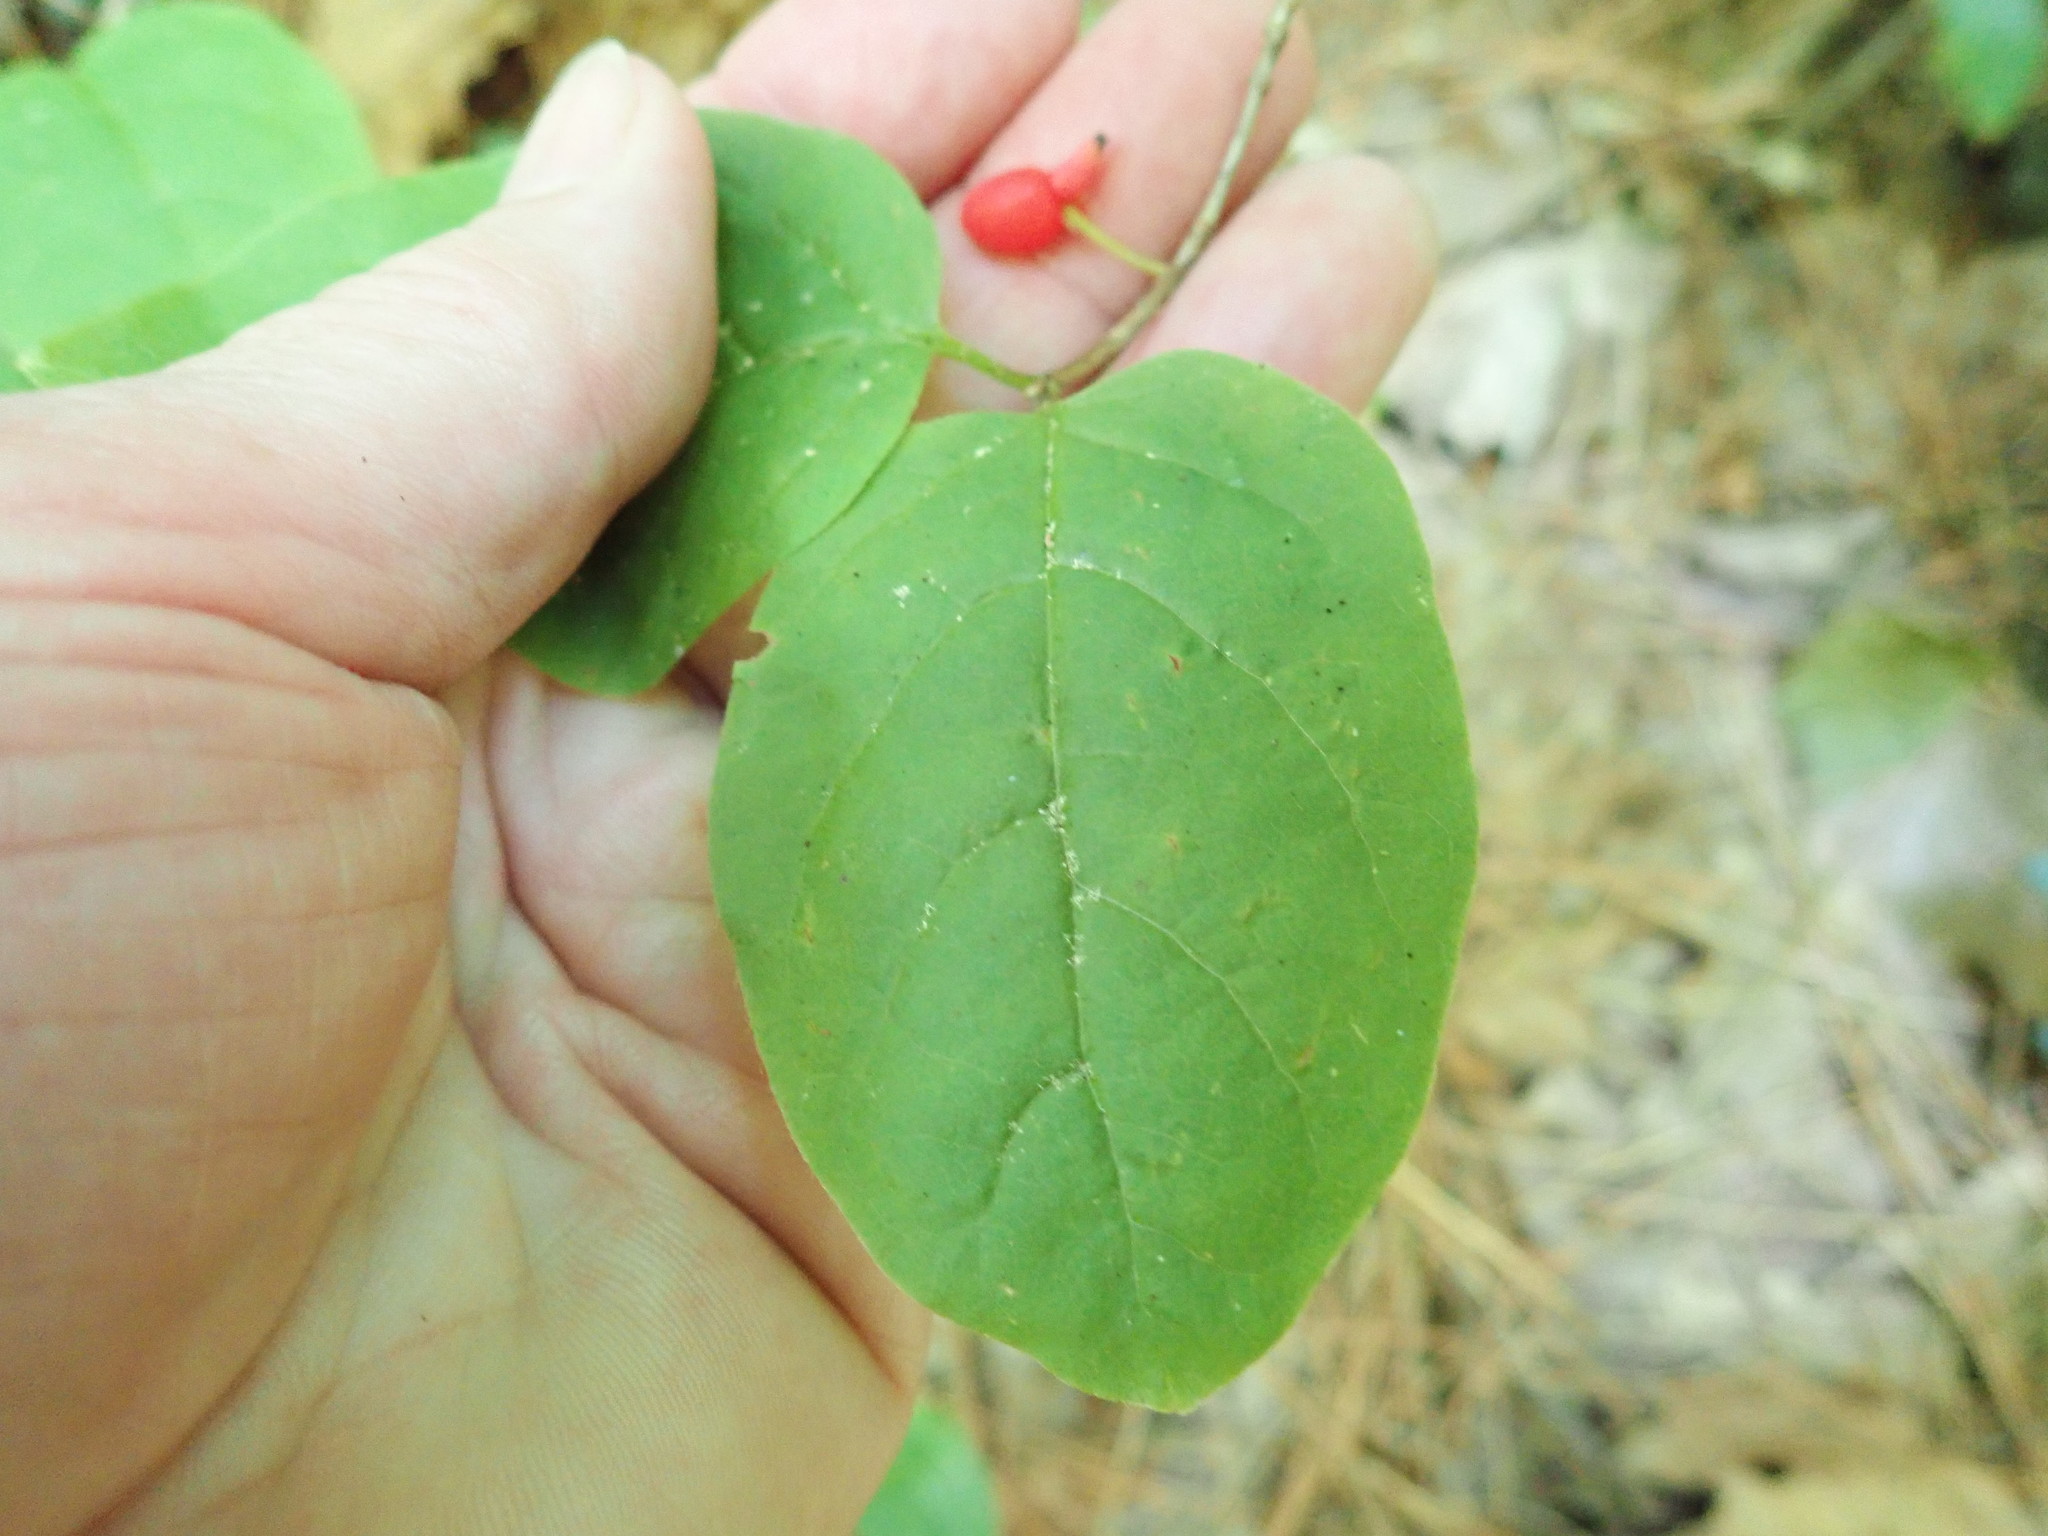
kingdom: Plantae
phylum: Tracheophyta
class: Magnoliopsida
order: Dipsacales
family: Caprifoliaceae
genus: Lonicera
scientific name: Lonicera canadensis
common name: American fly-honeysuckle
